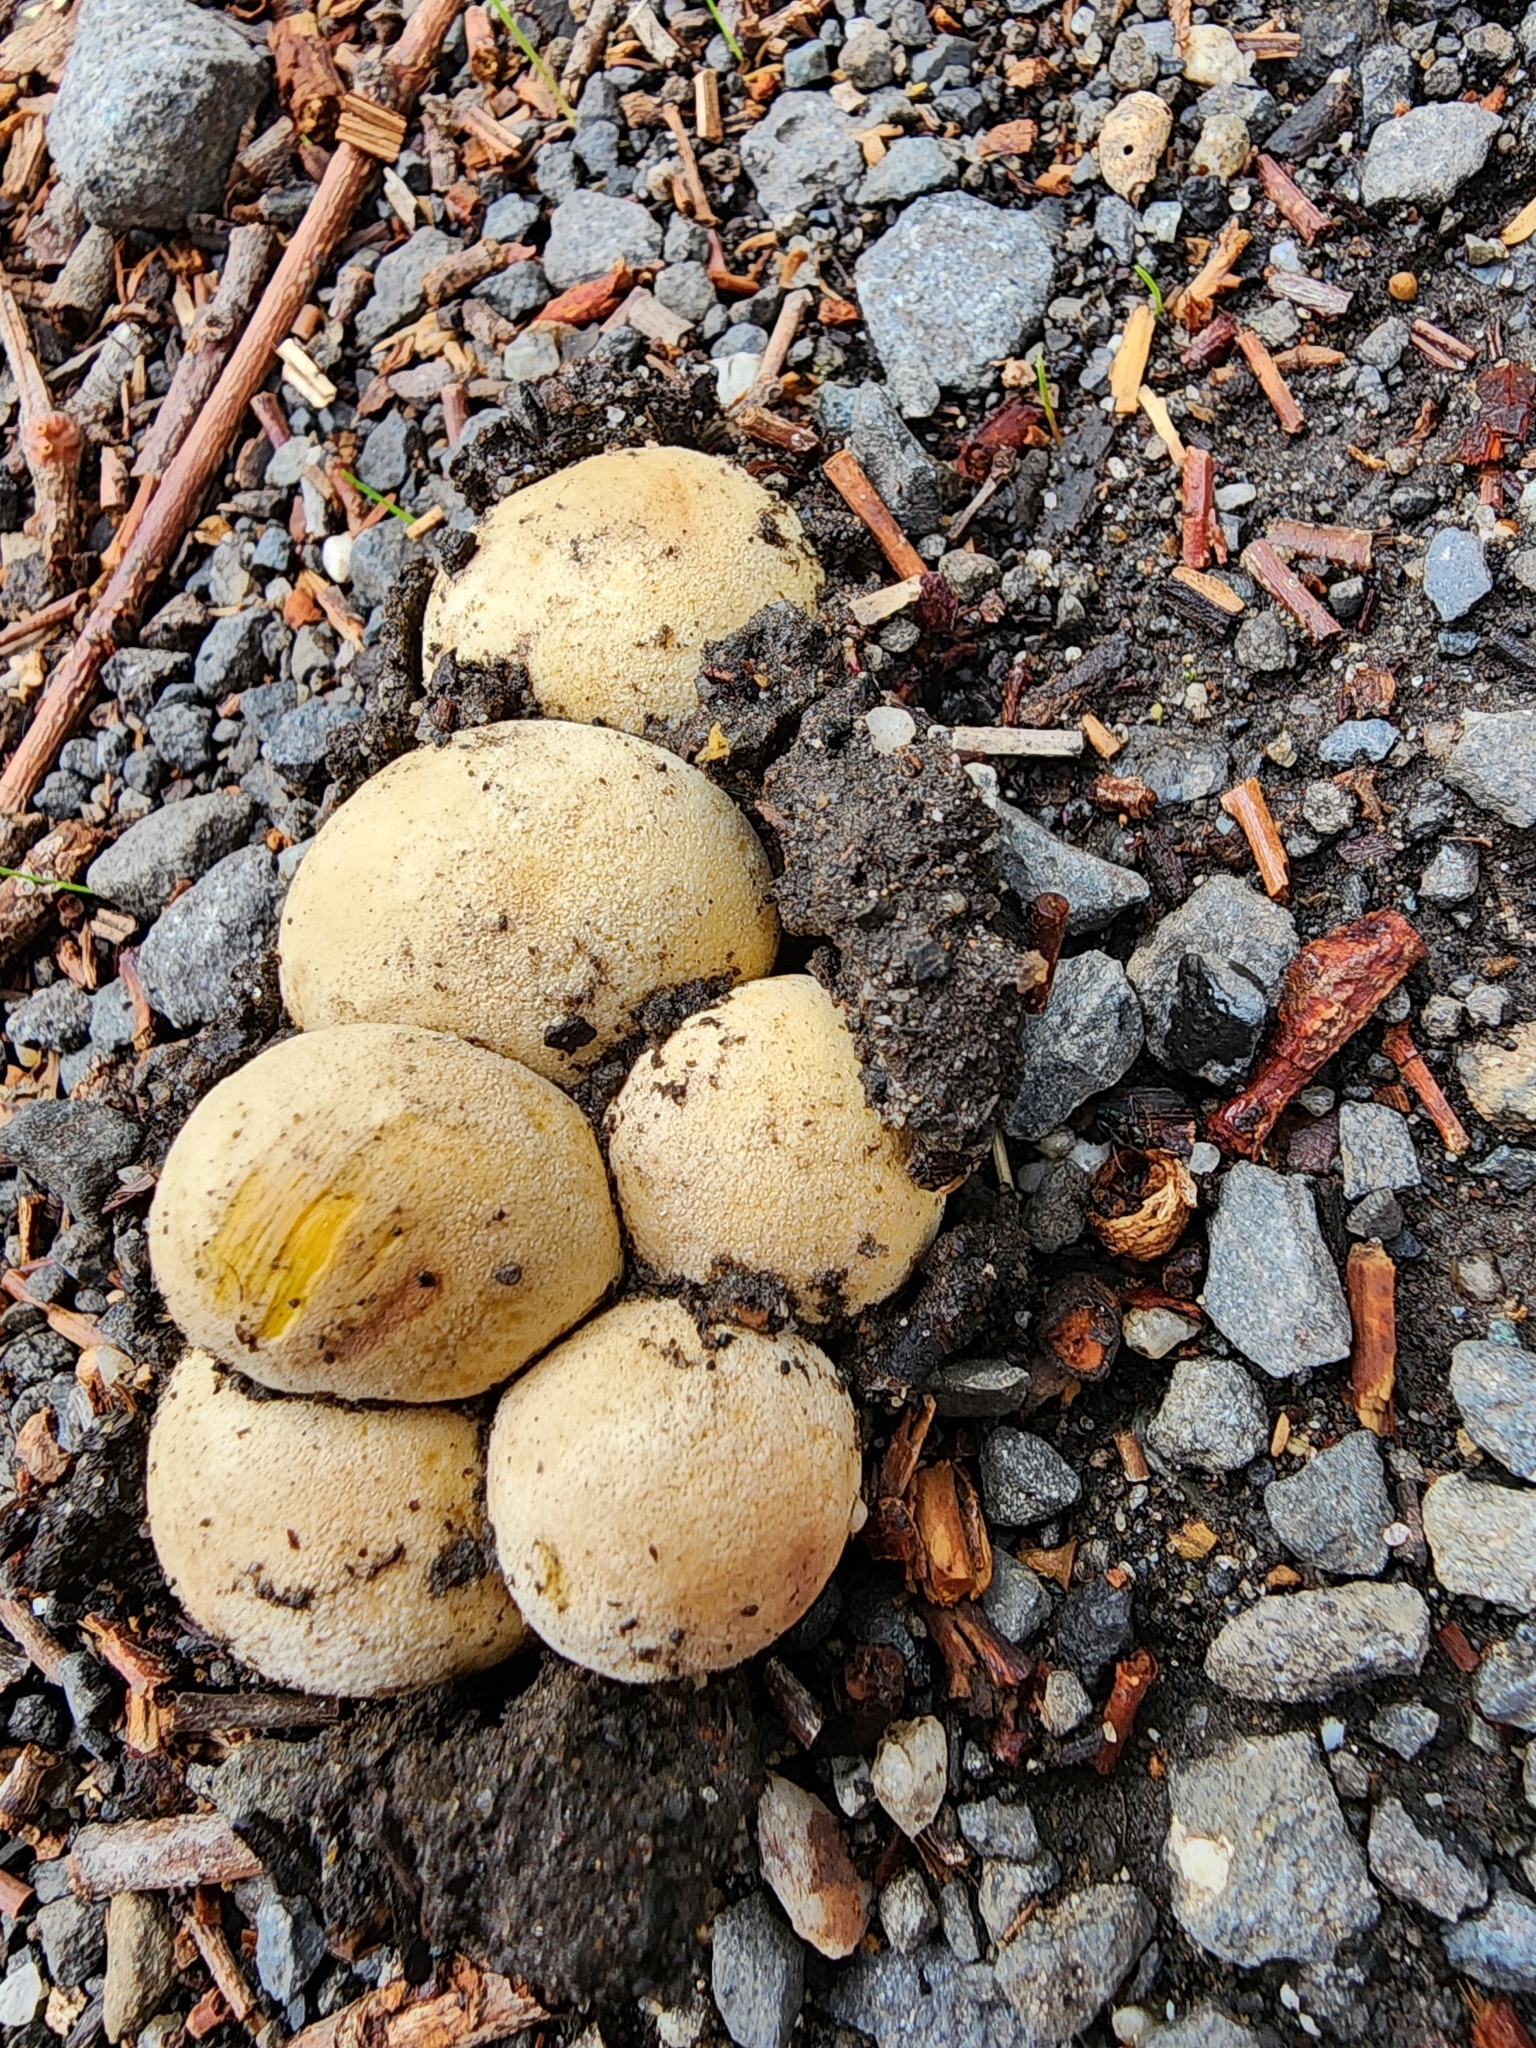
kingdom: Fungi
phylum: Basidiomycota
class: Agaricomycetes
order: Boletales
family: Sclerodermataceae
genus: Scleroderma
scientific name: Scleroderma cepa
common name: Onion earthball
